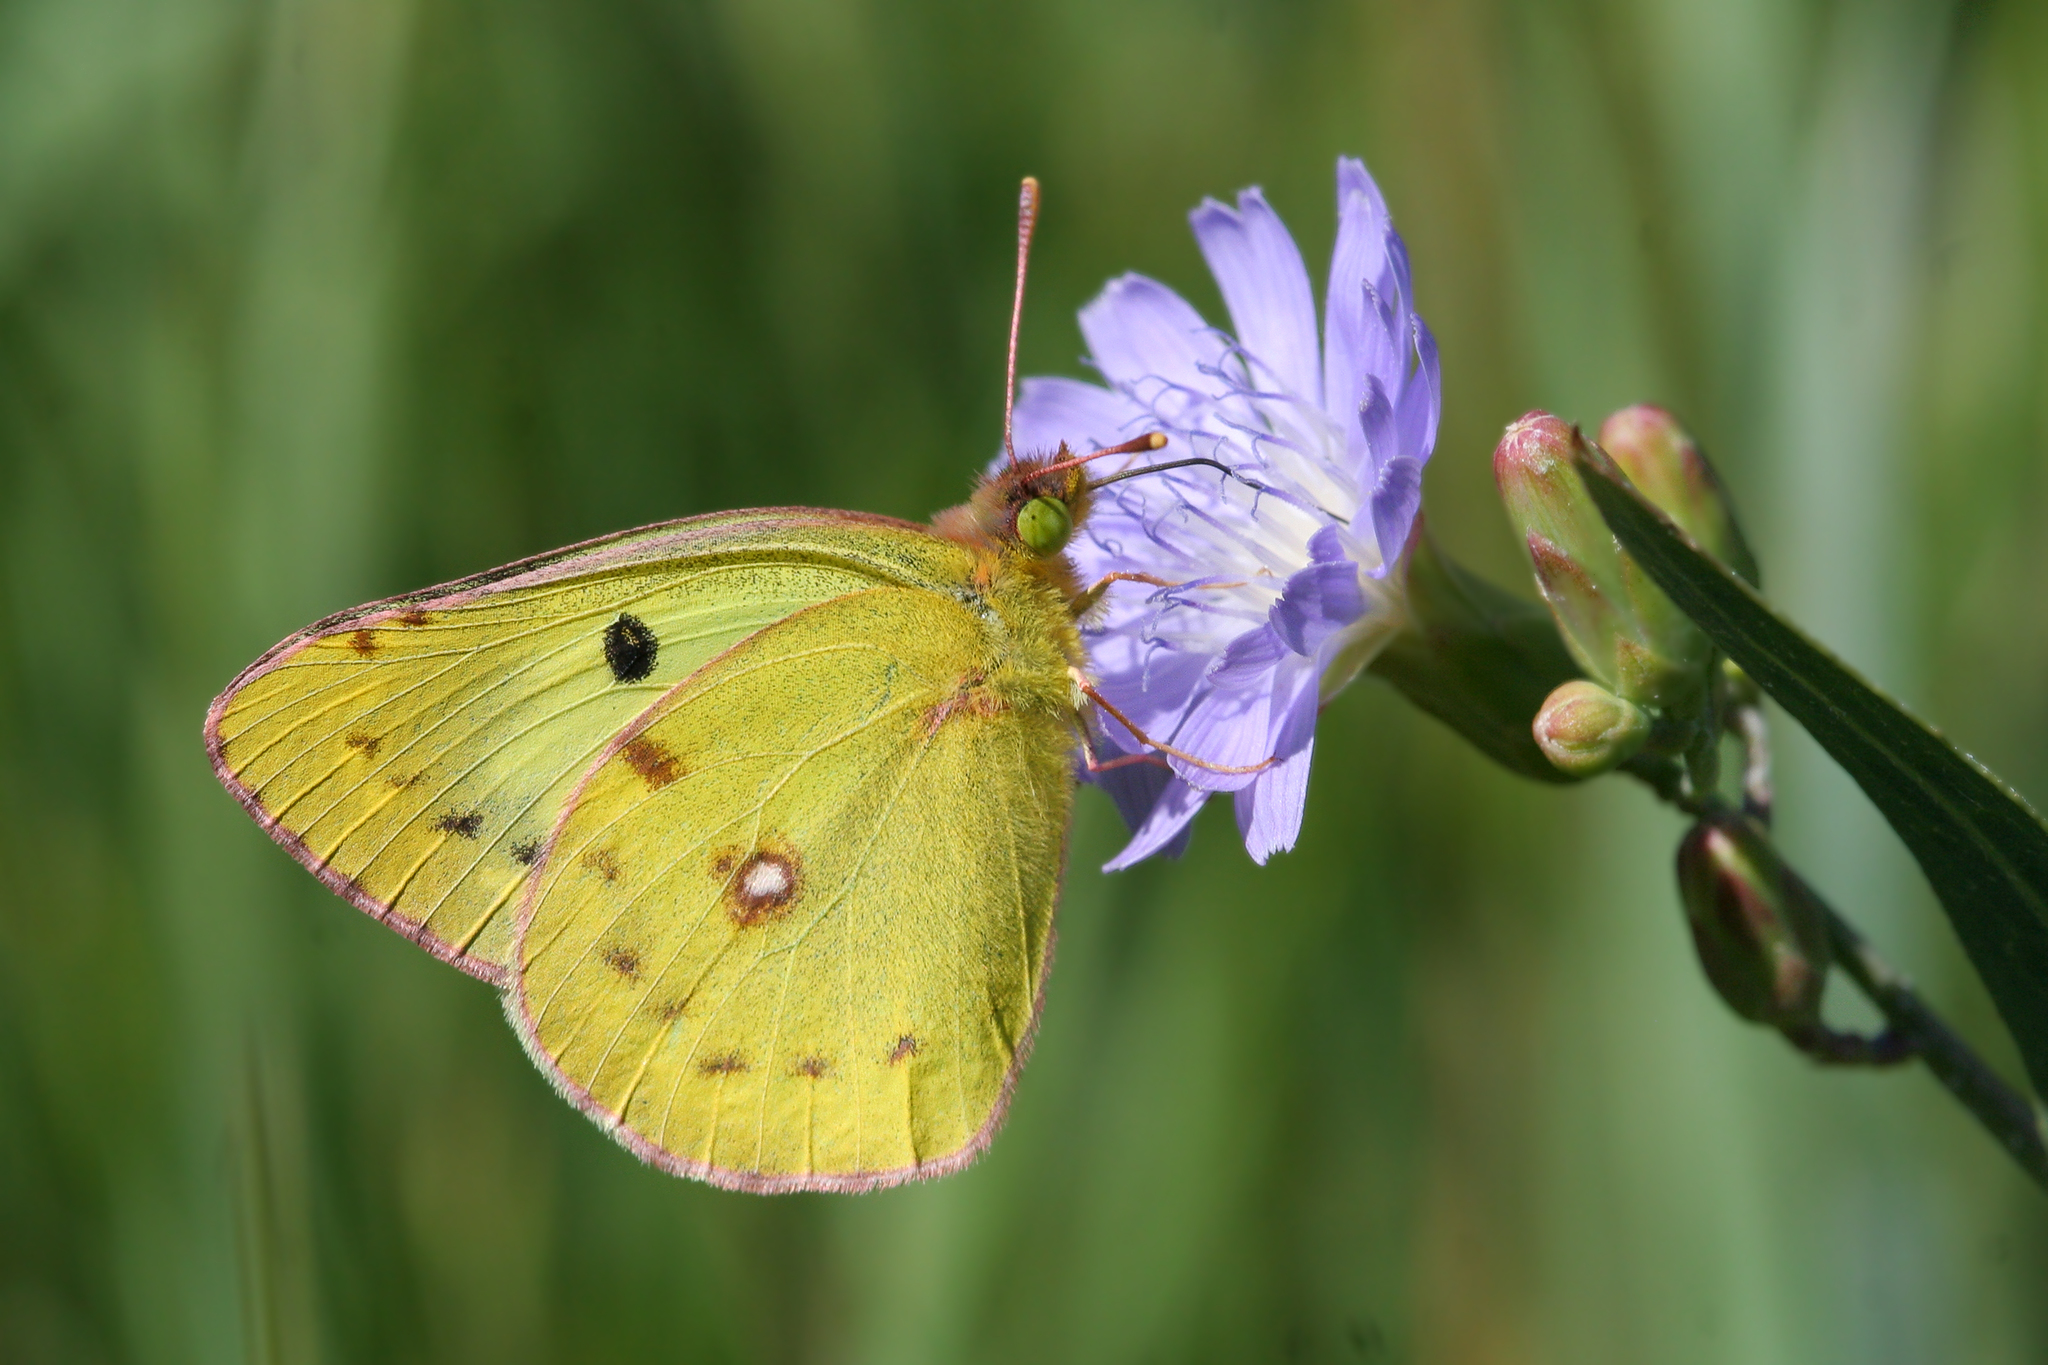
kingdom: Animalia
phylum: Arthropoda
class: Insecta
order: Lepidoptera
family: Pieridae
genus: Colias
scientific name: Colias hyale
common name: Pale clouded yellow
